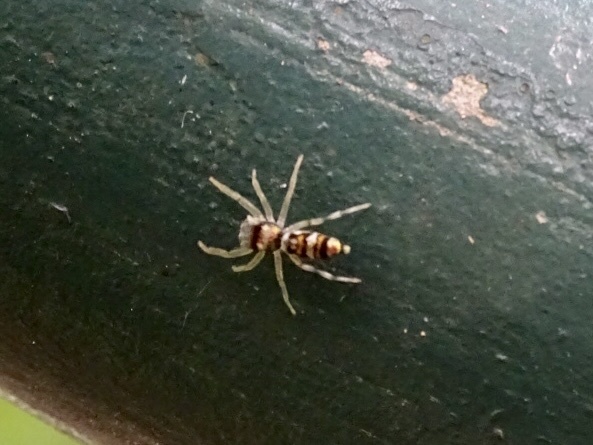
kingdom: Animalia
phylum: Arthropoda
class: Arachnida
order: Araneae
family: Salticidae
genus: Chrysilla
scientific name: Chrysilla acerosa
